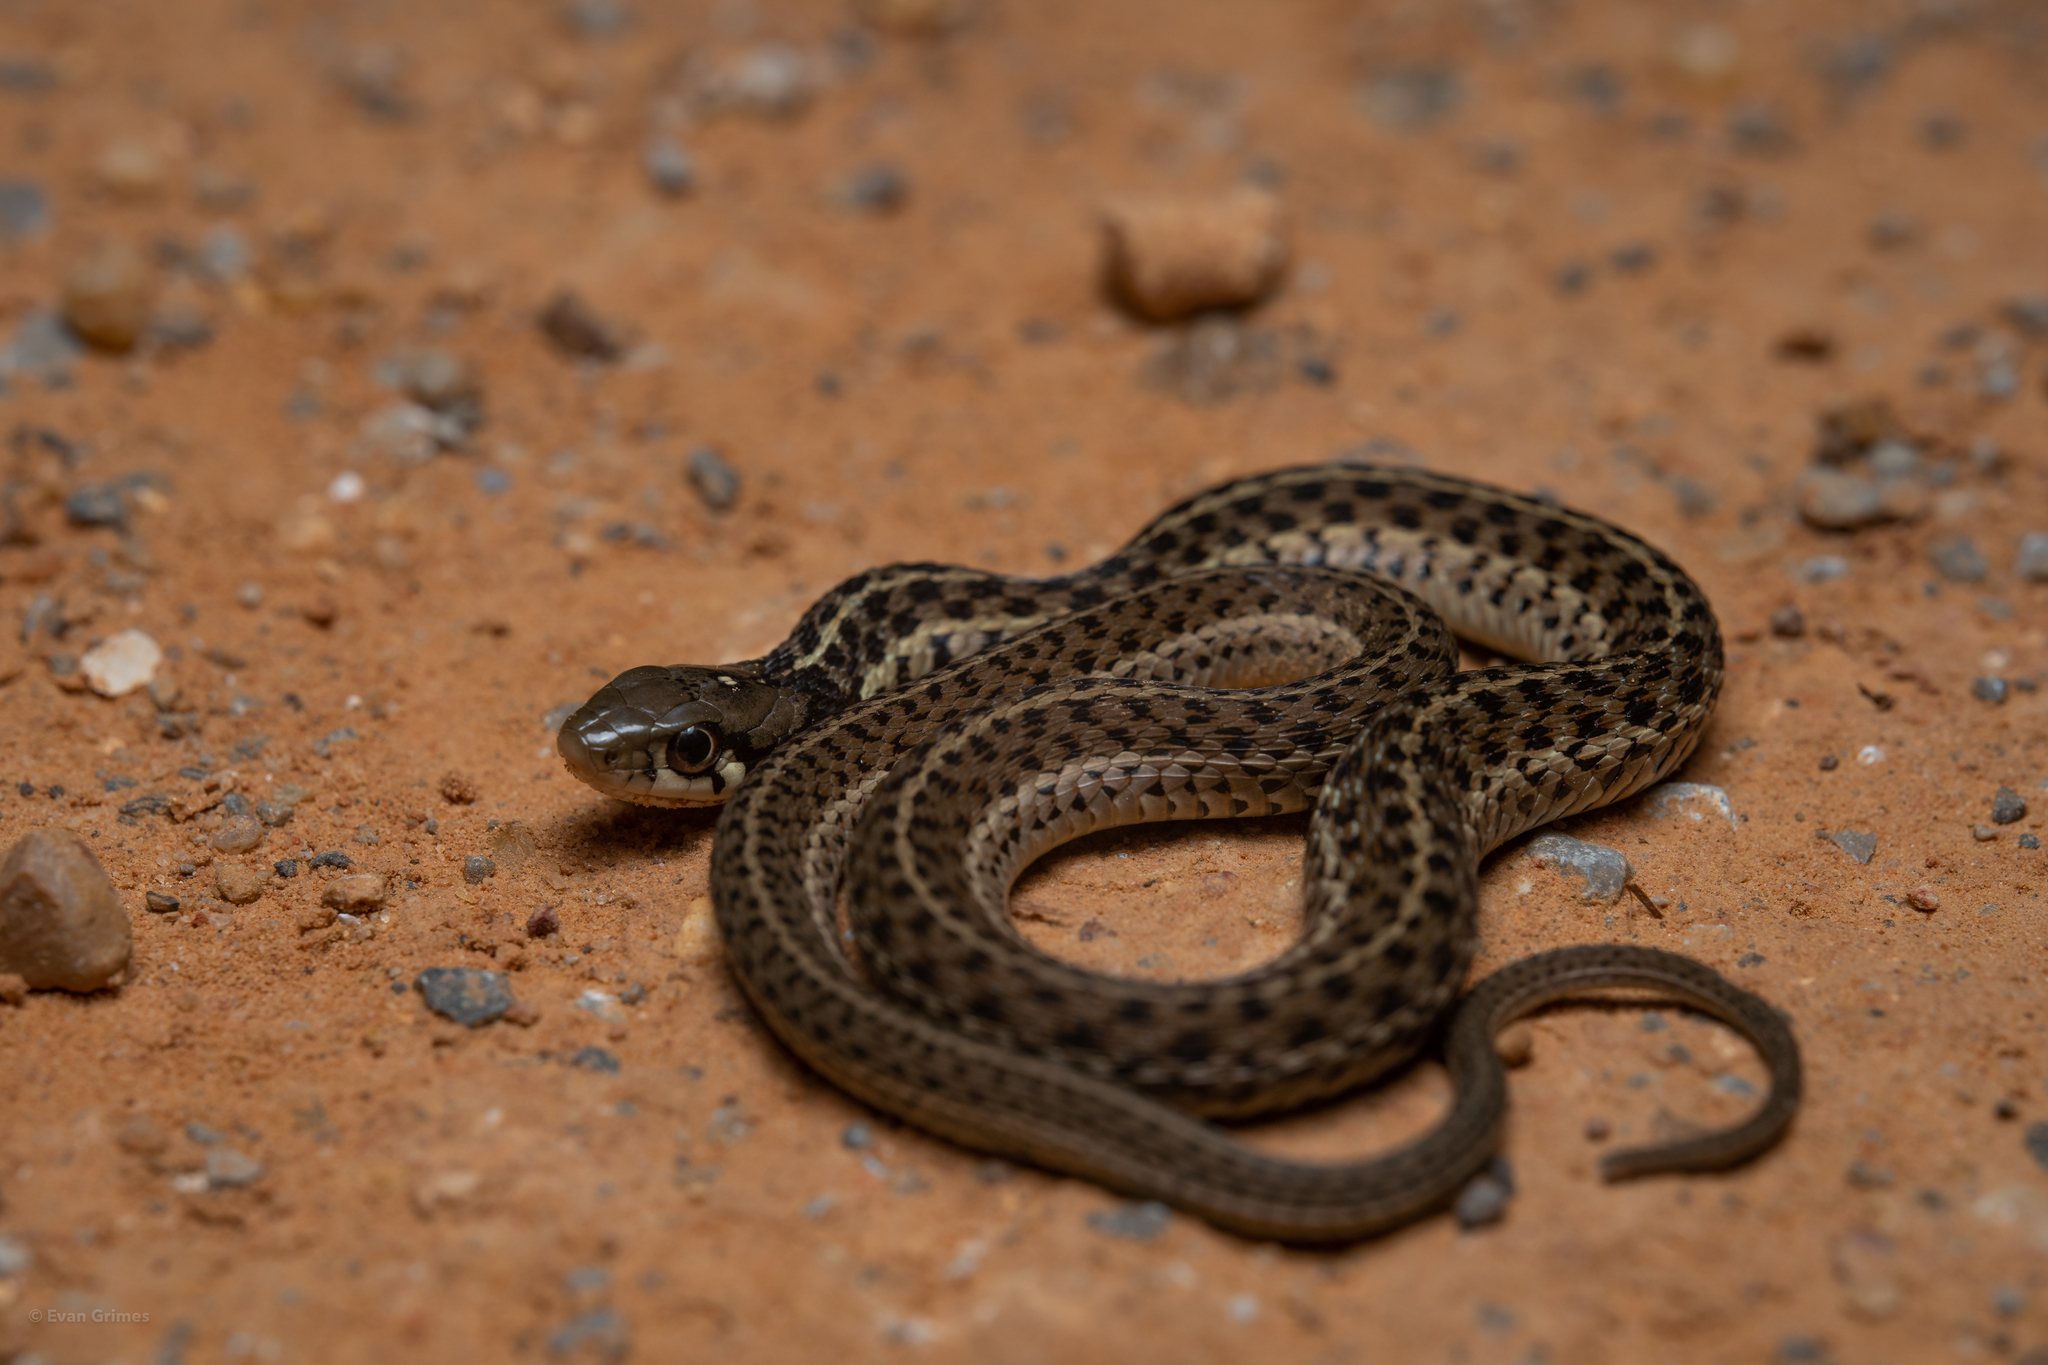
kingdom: Animalia
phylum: Chordata
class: Squamata
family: Colubridae
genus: Thamnophis
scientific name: Thamnophis sirtalis
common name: Common garter snake
